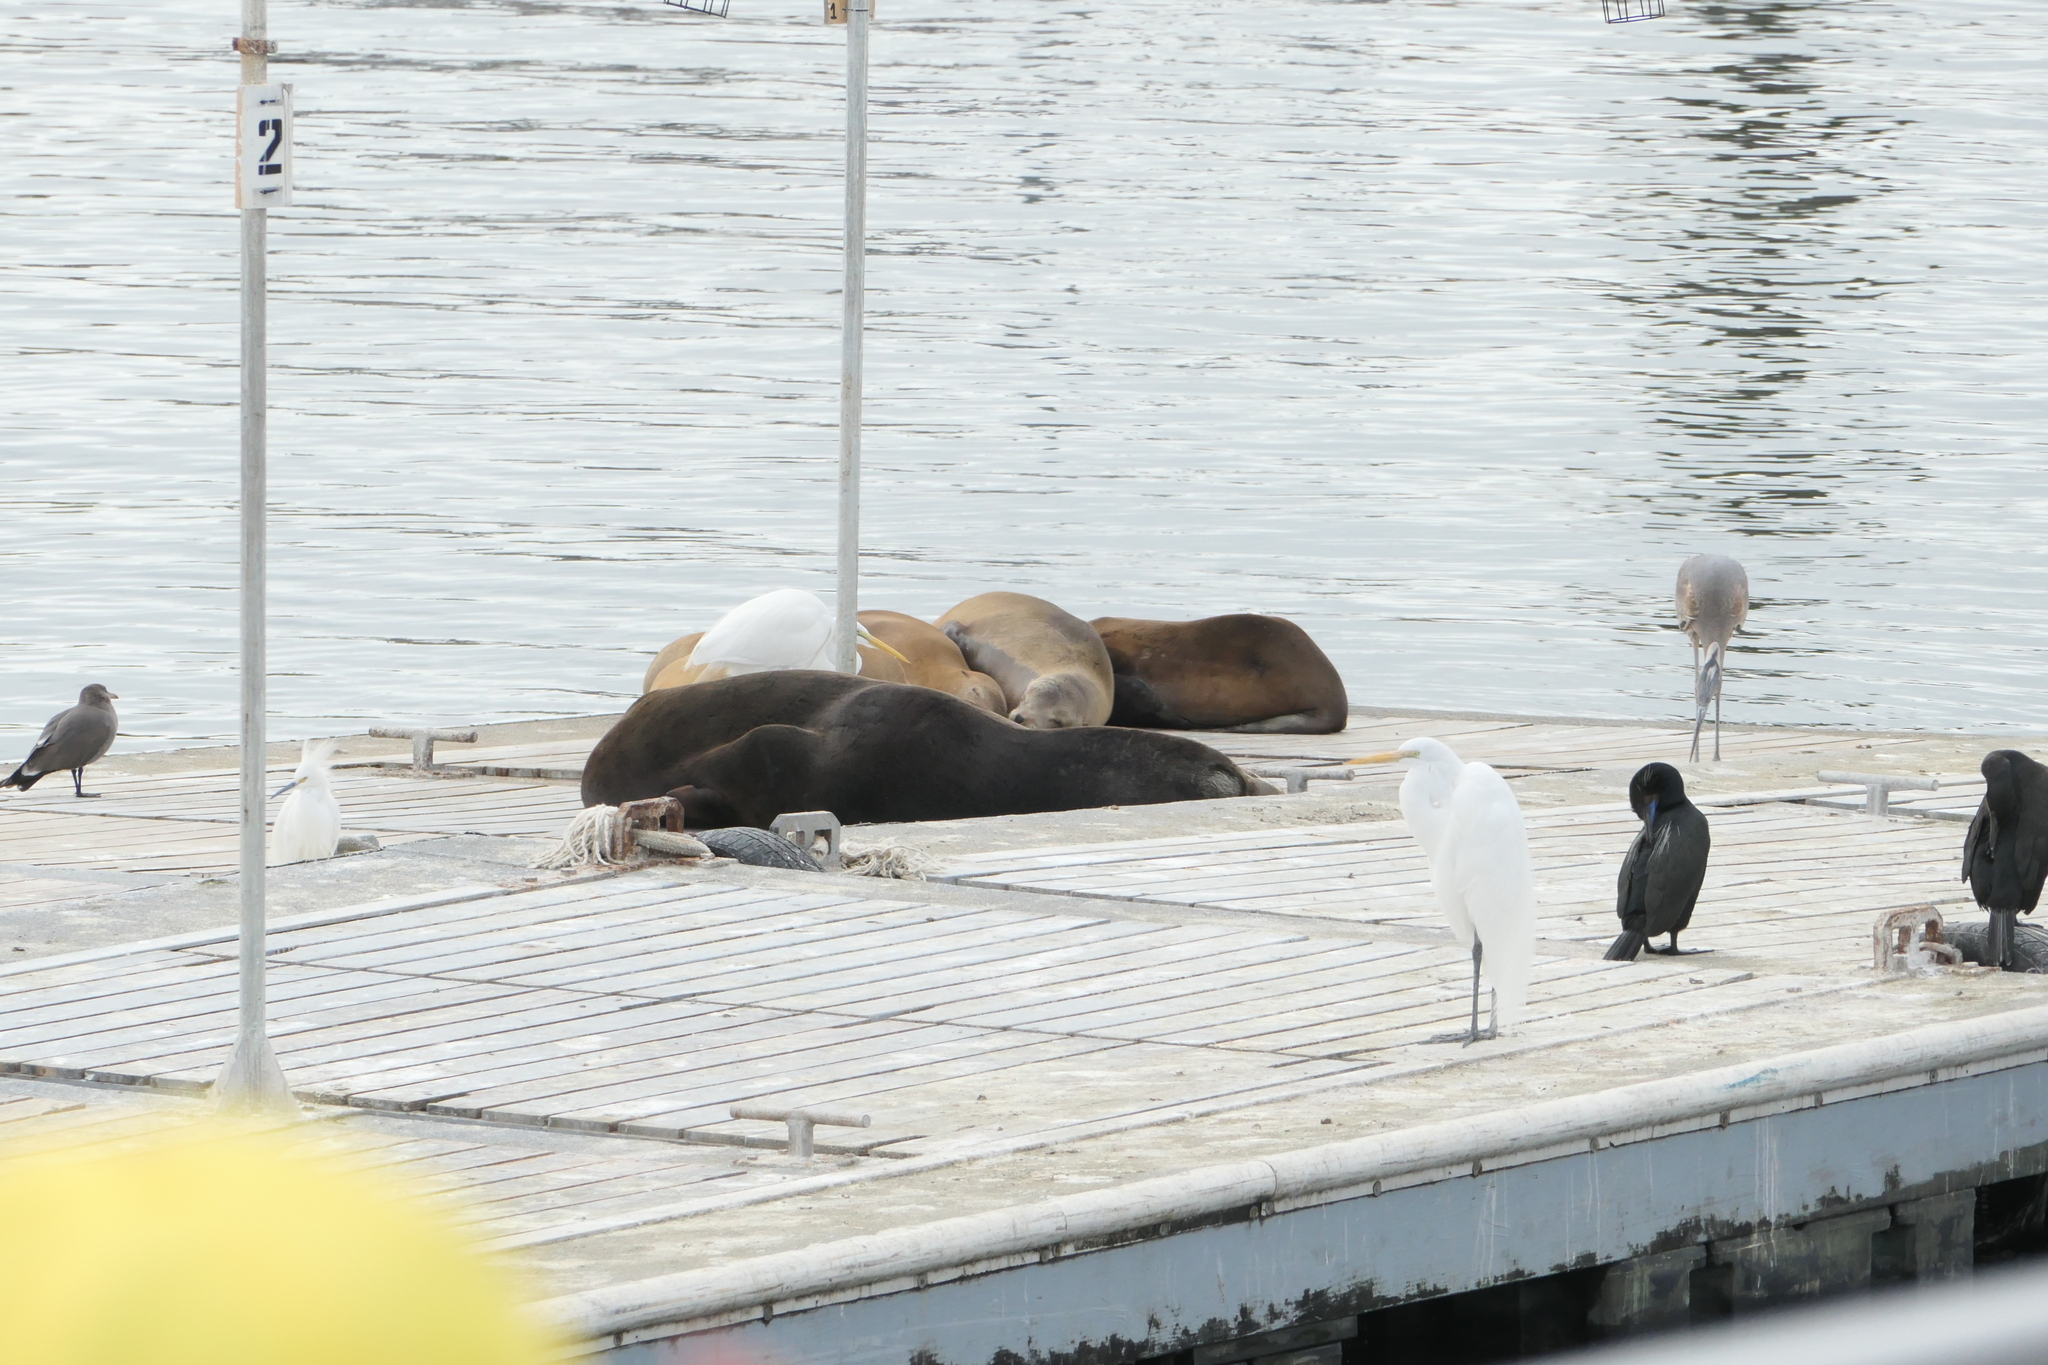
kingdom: Animalia
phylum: Chordata
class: Mammalia
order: Carnivora
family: Otariidae
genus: Zalophus
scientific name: Zalophus californianus
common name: California sea lion
